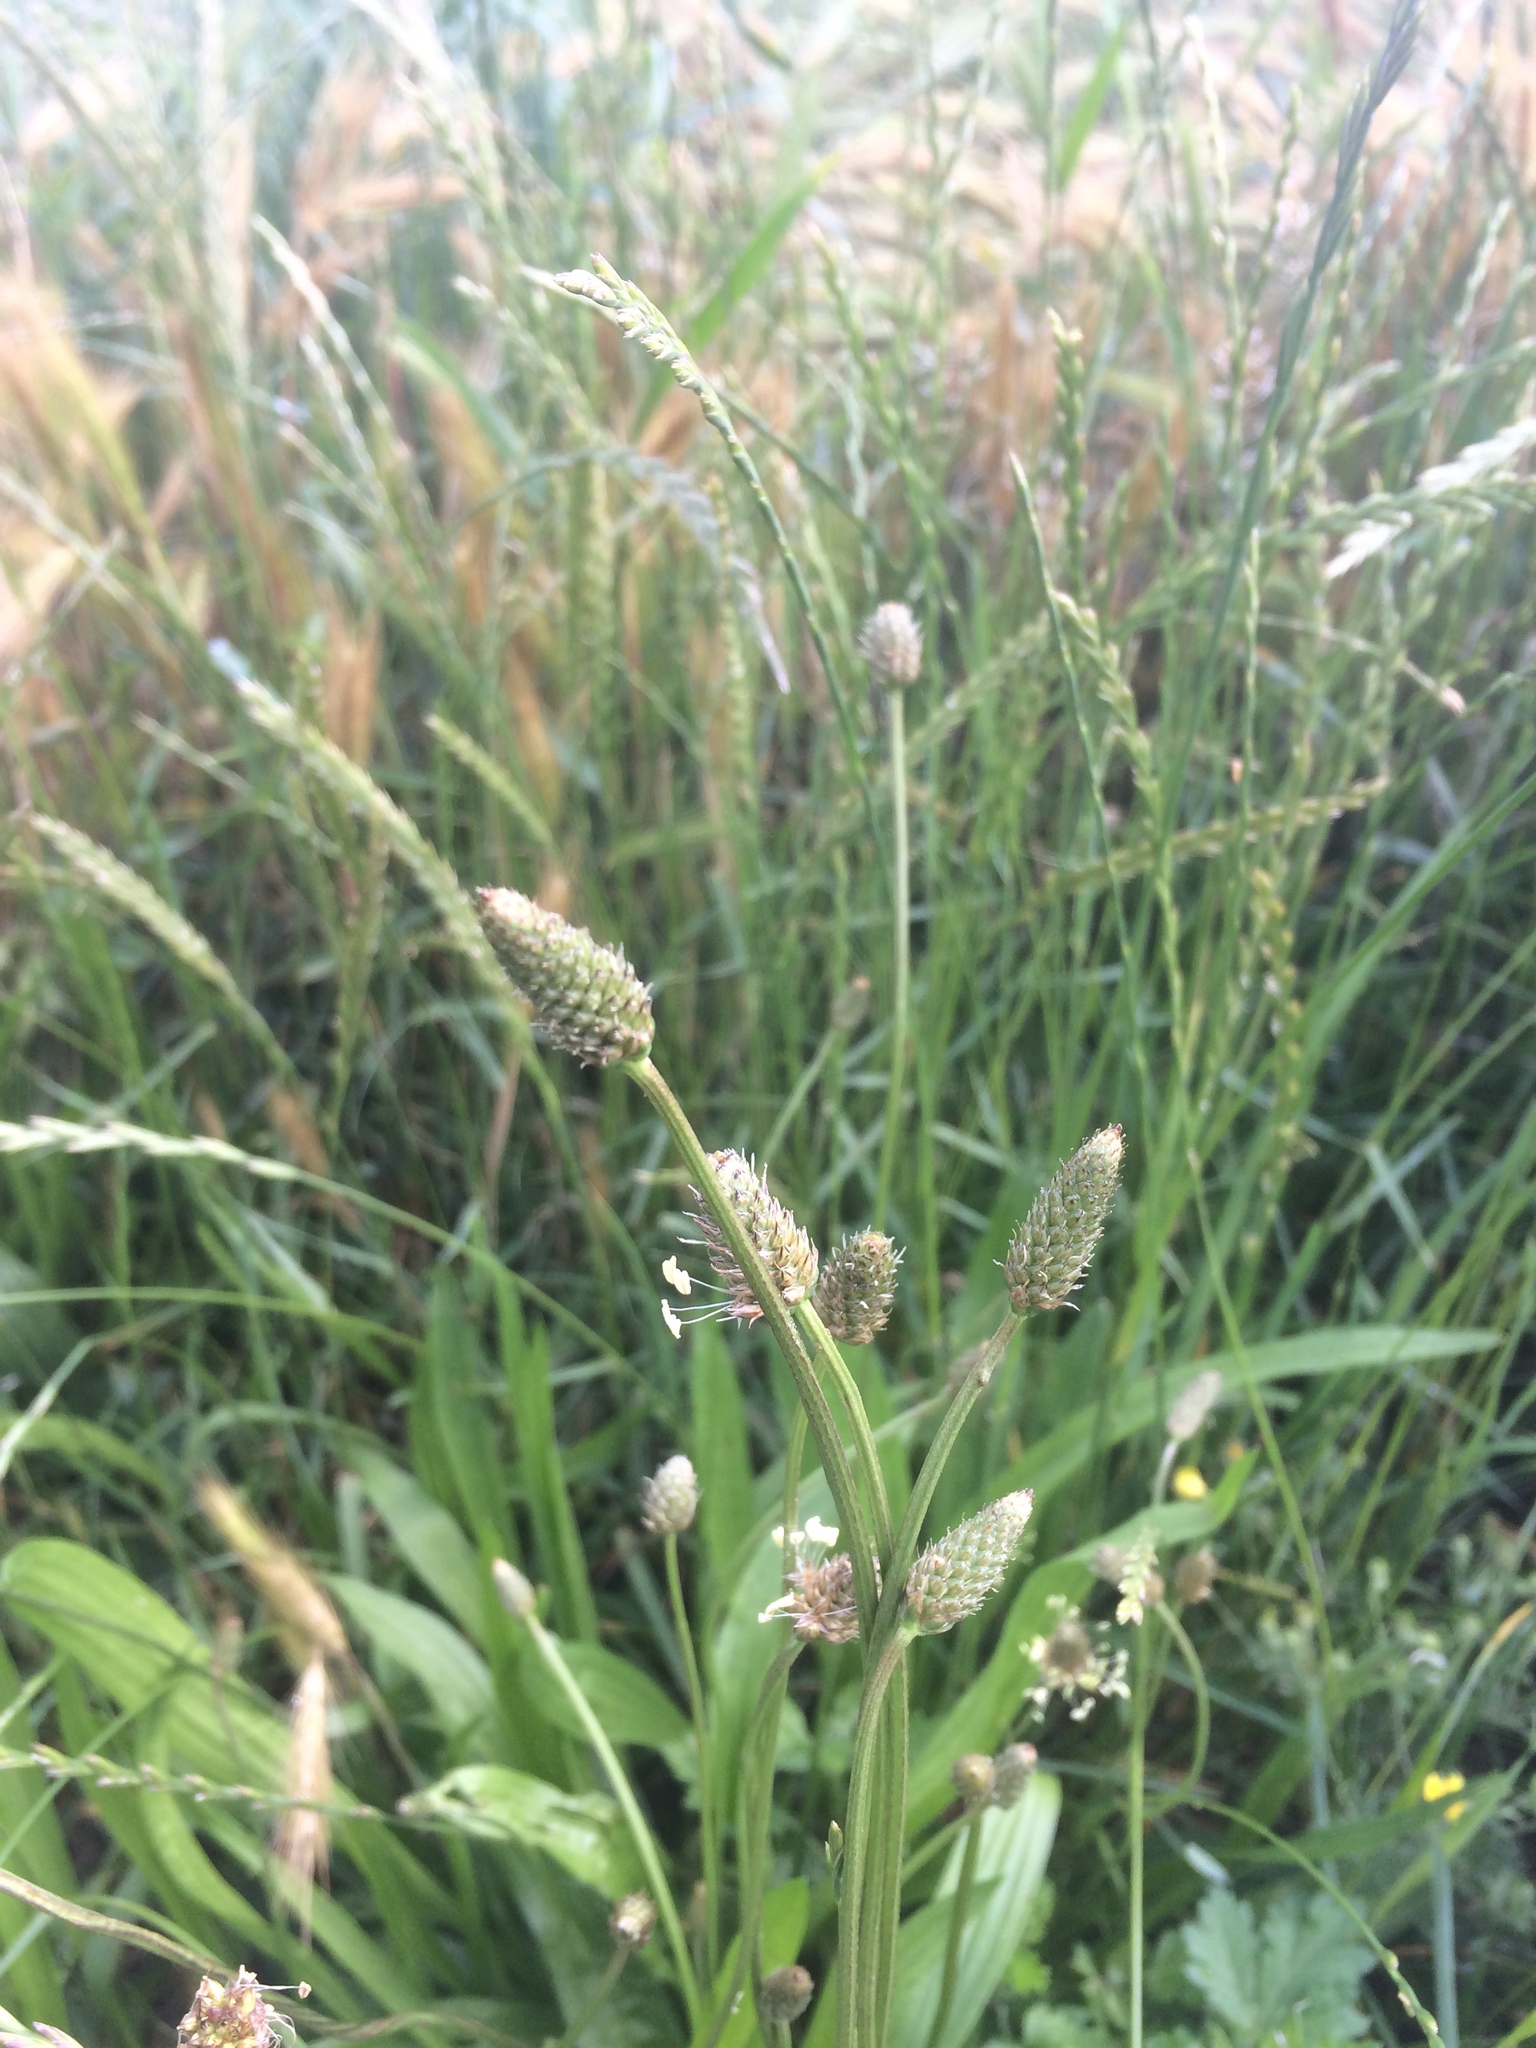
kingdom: Plantae
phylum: Tracheophyta
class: Magnoliopsida
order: Lamiales
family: Plantaginaceae
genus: Plantago
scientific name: Plantago lanceolata
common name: Ribwort plantain
